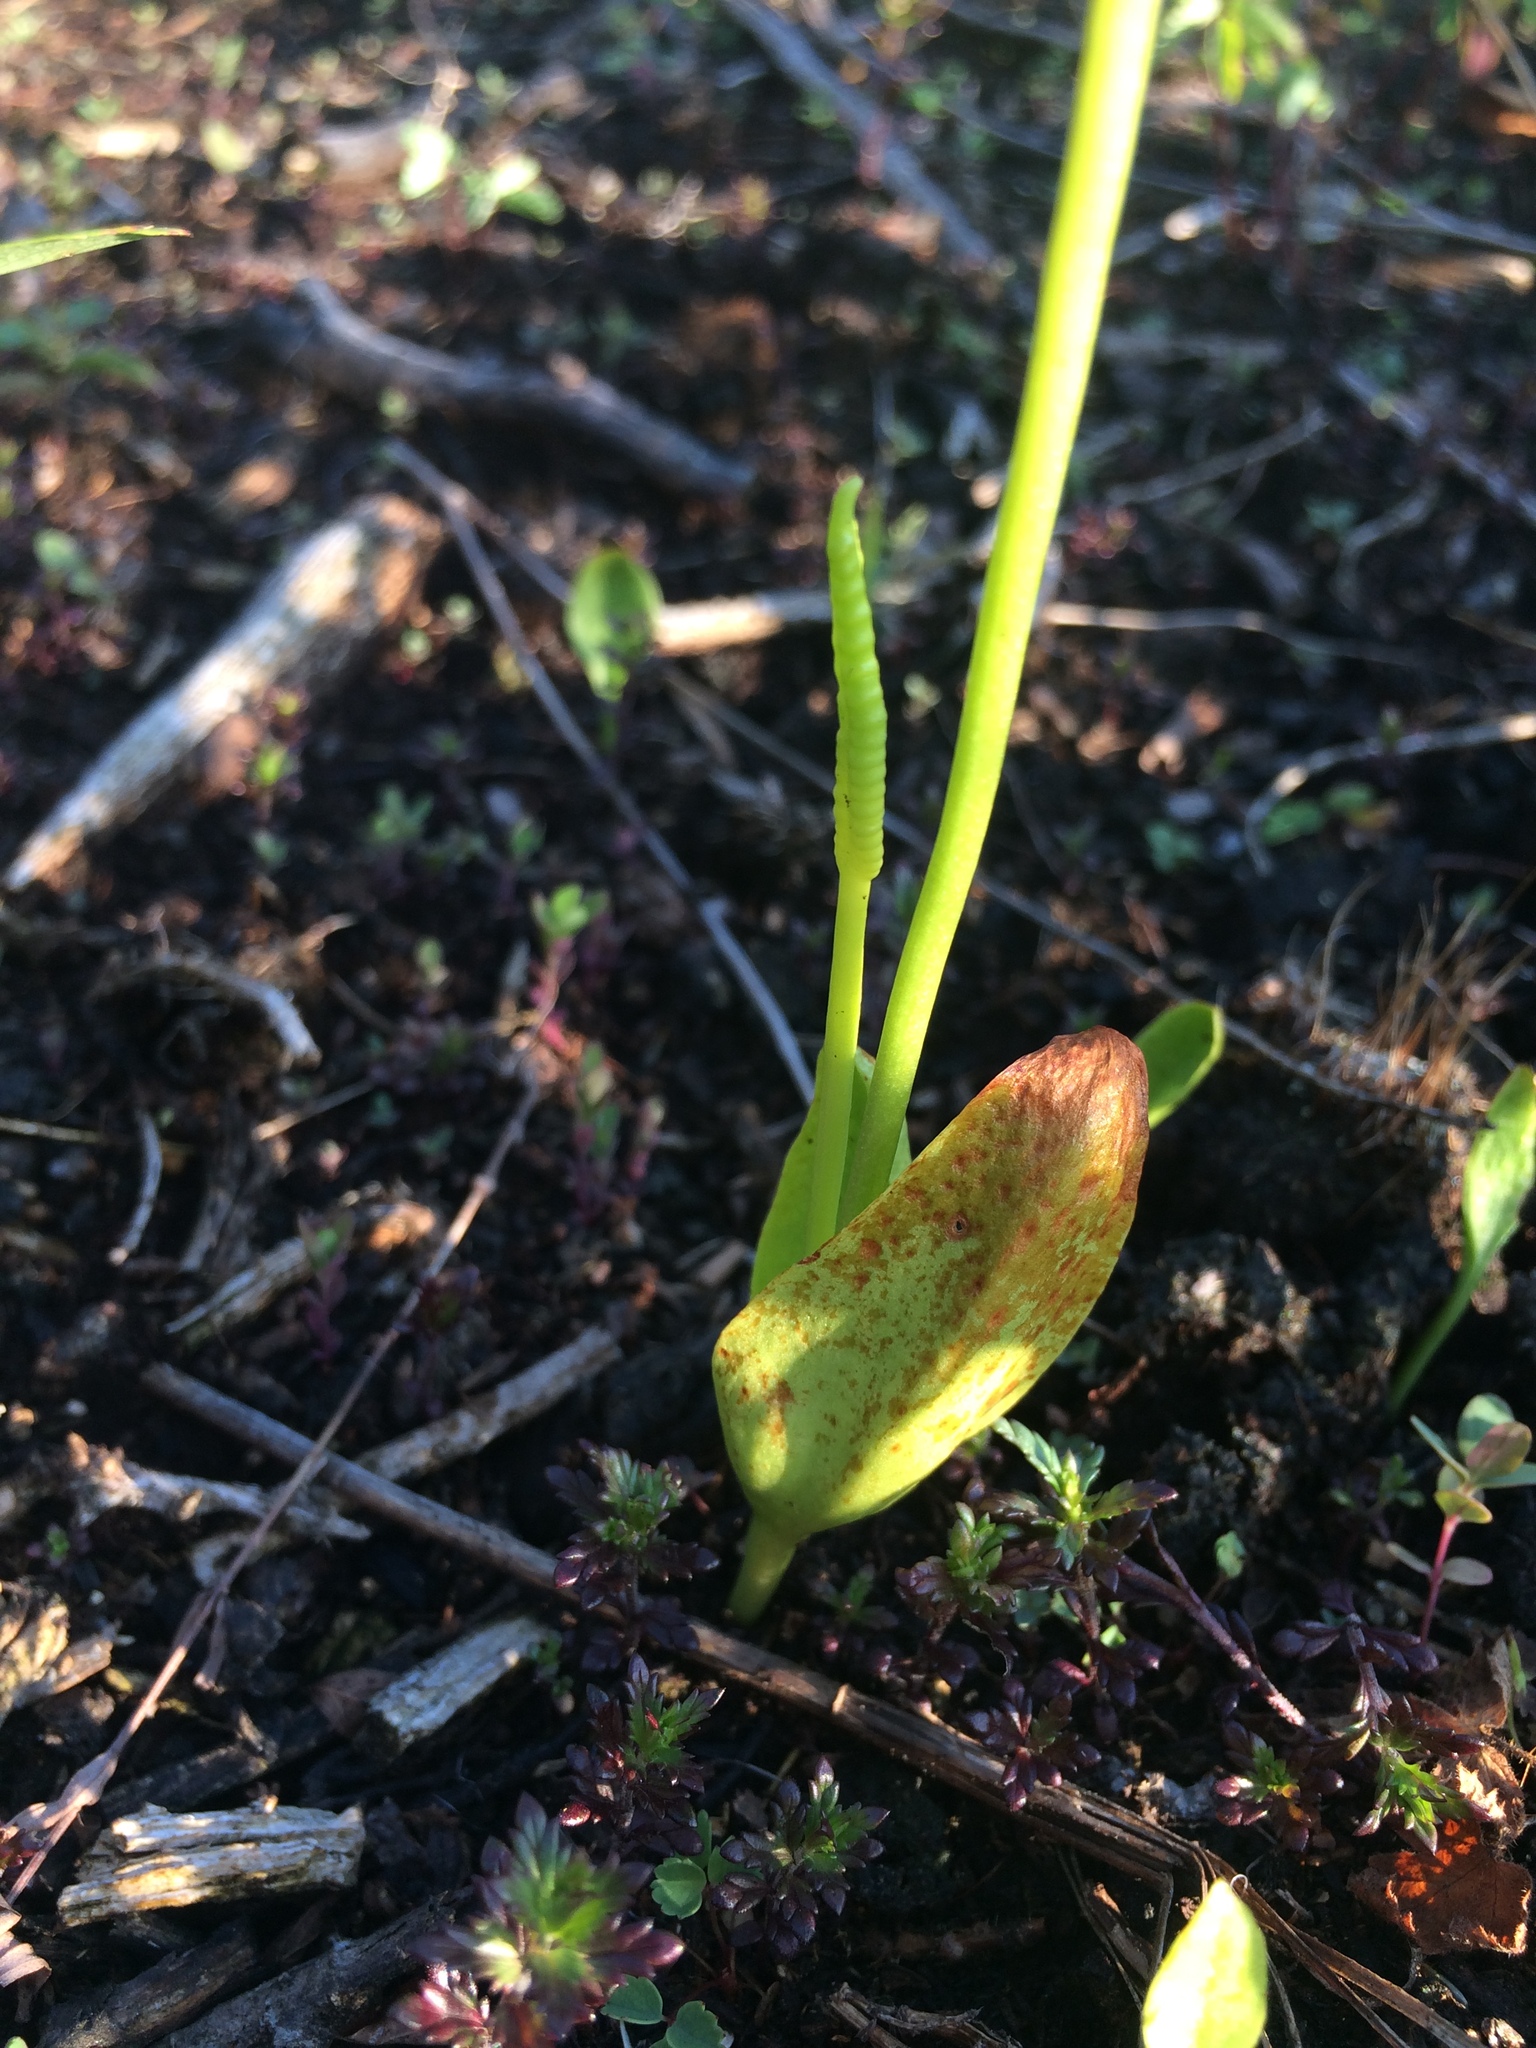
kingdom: Plantae
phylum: Tracheophyta
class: Polypodiopsida
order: Ophioglossales
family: Ophioglossaceae
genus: Ophioglossum
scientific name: Ophioglossum pusillum
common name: Northern adder's-tongue
